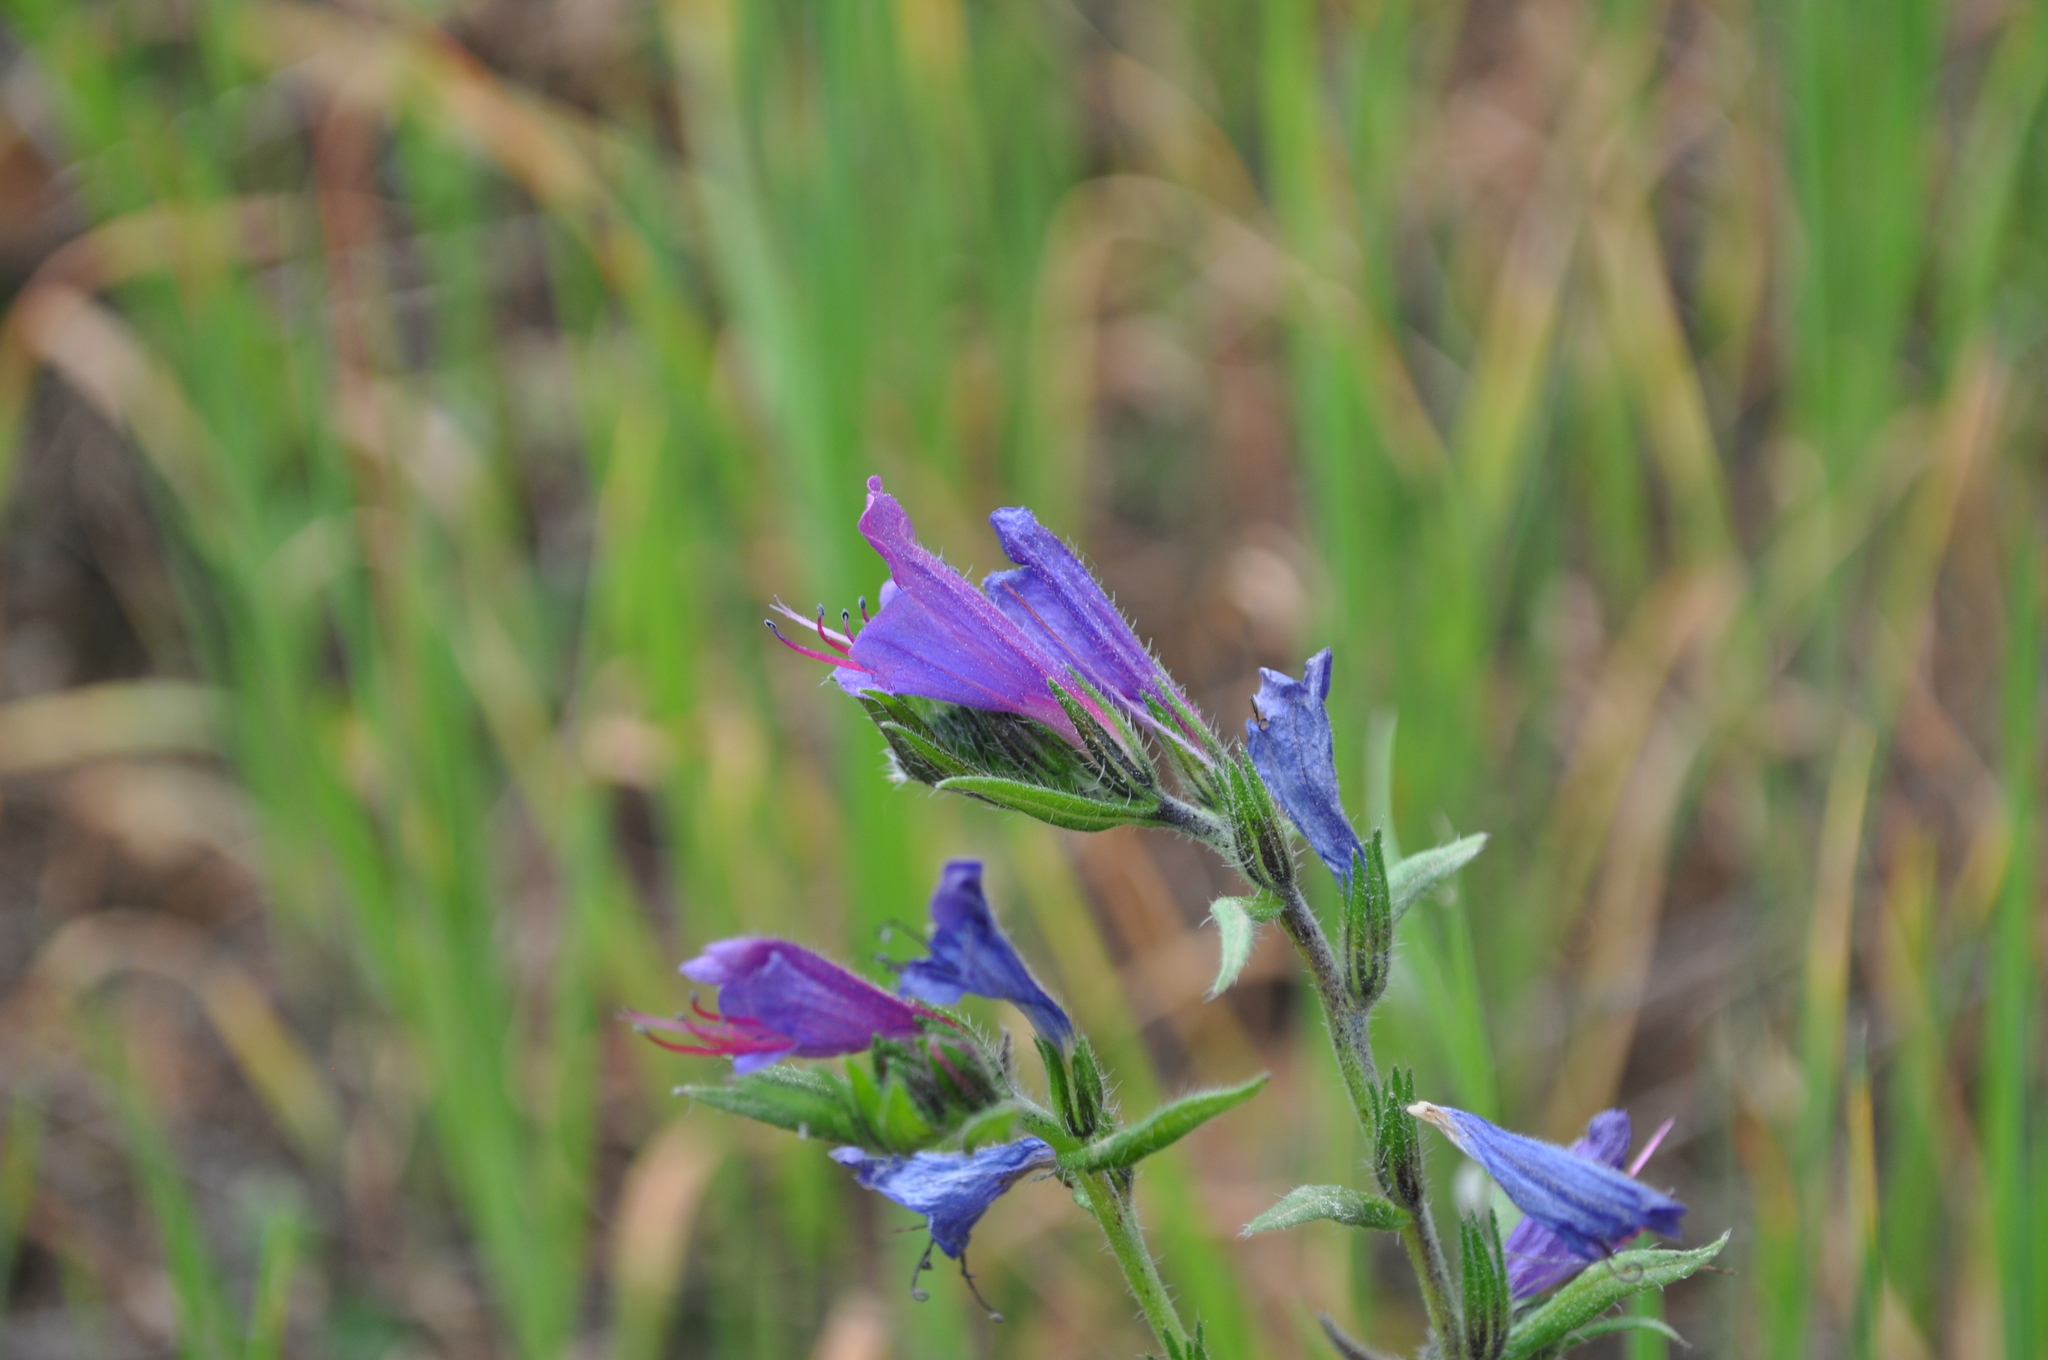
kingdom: Plantae
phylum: Tracheophyta
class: Magnoliopsida
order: Boraginales
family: Boraginaceae
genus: Echium
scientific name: Echium vulgare
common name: Common viper's bugloss
